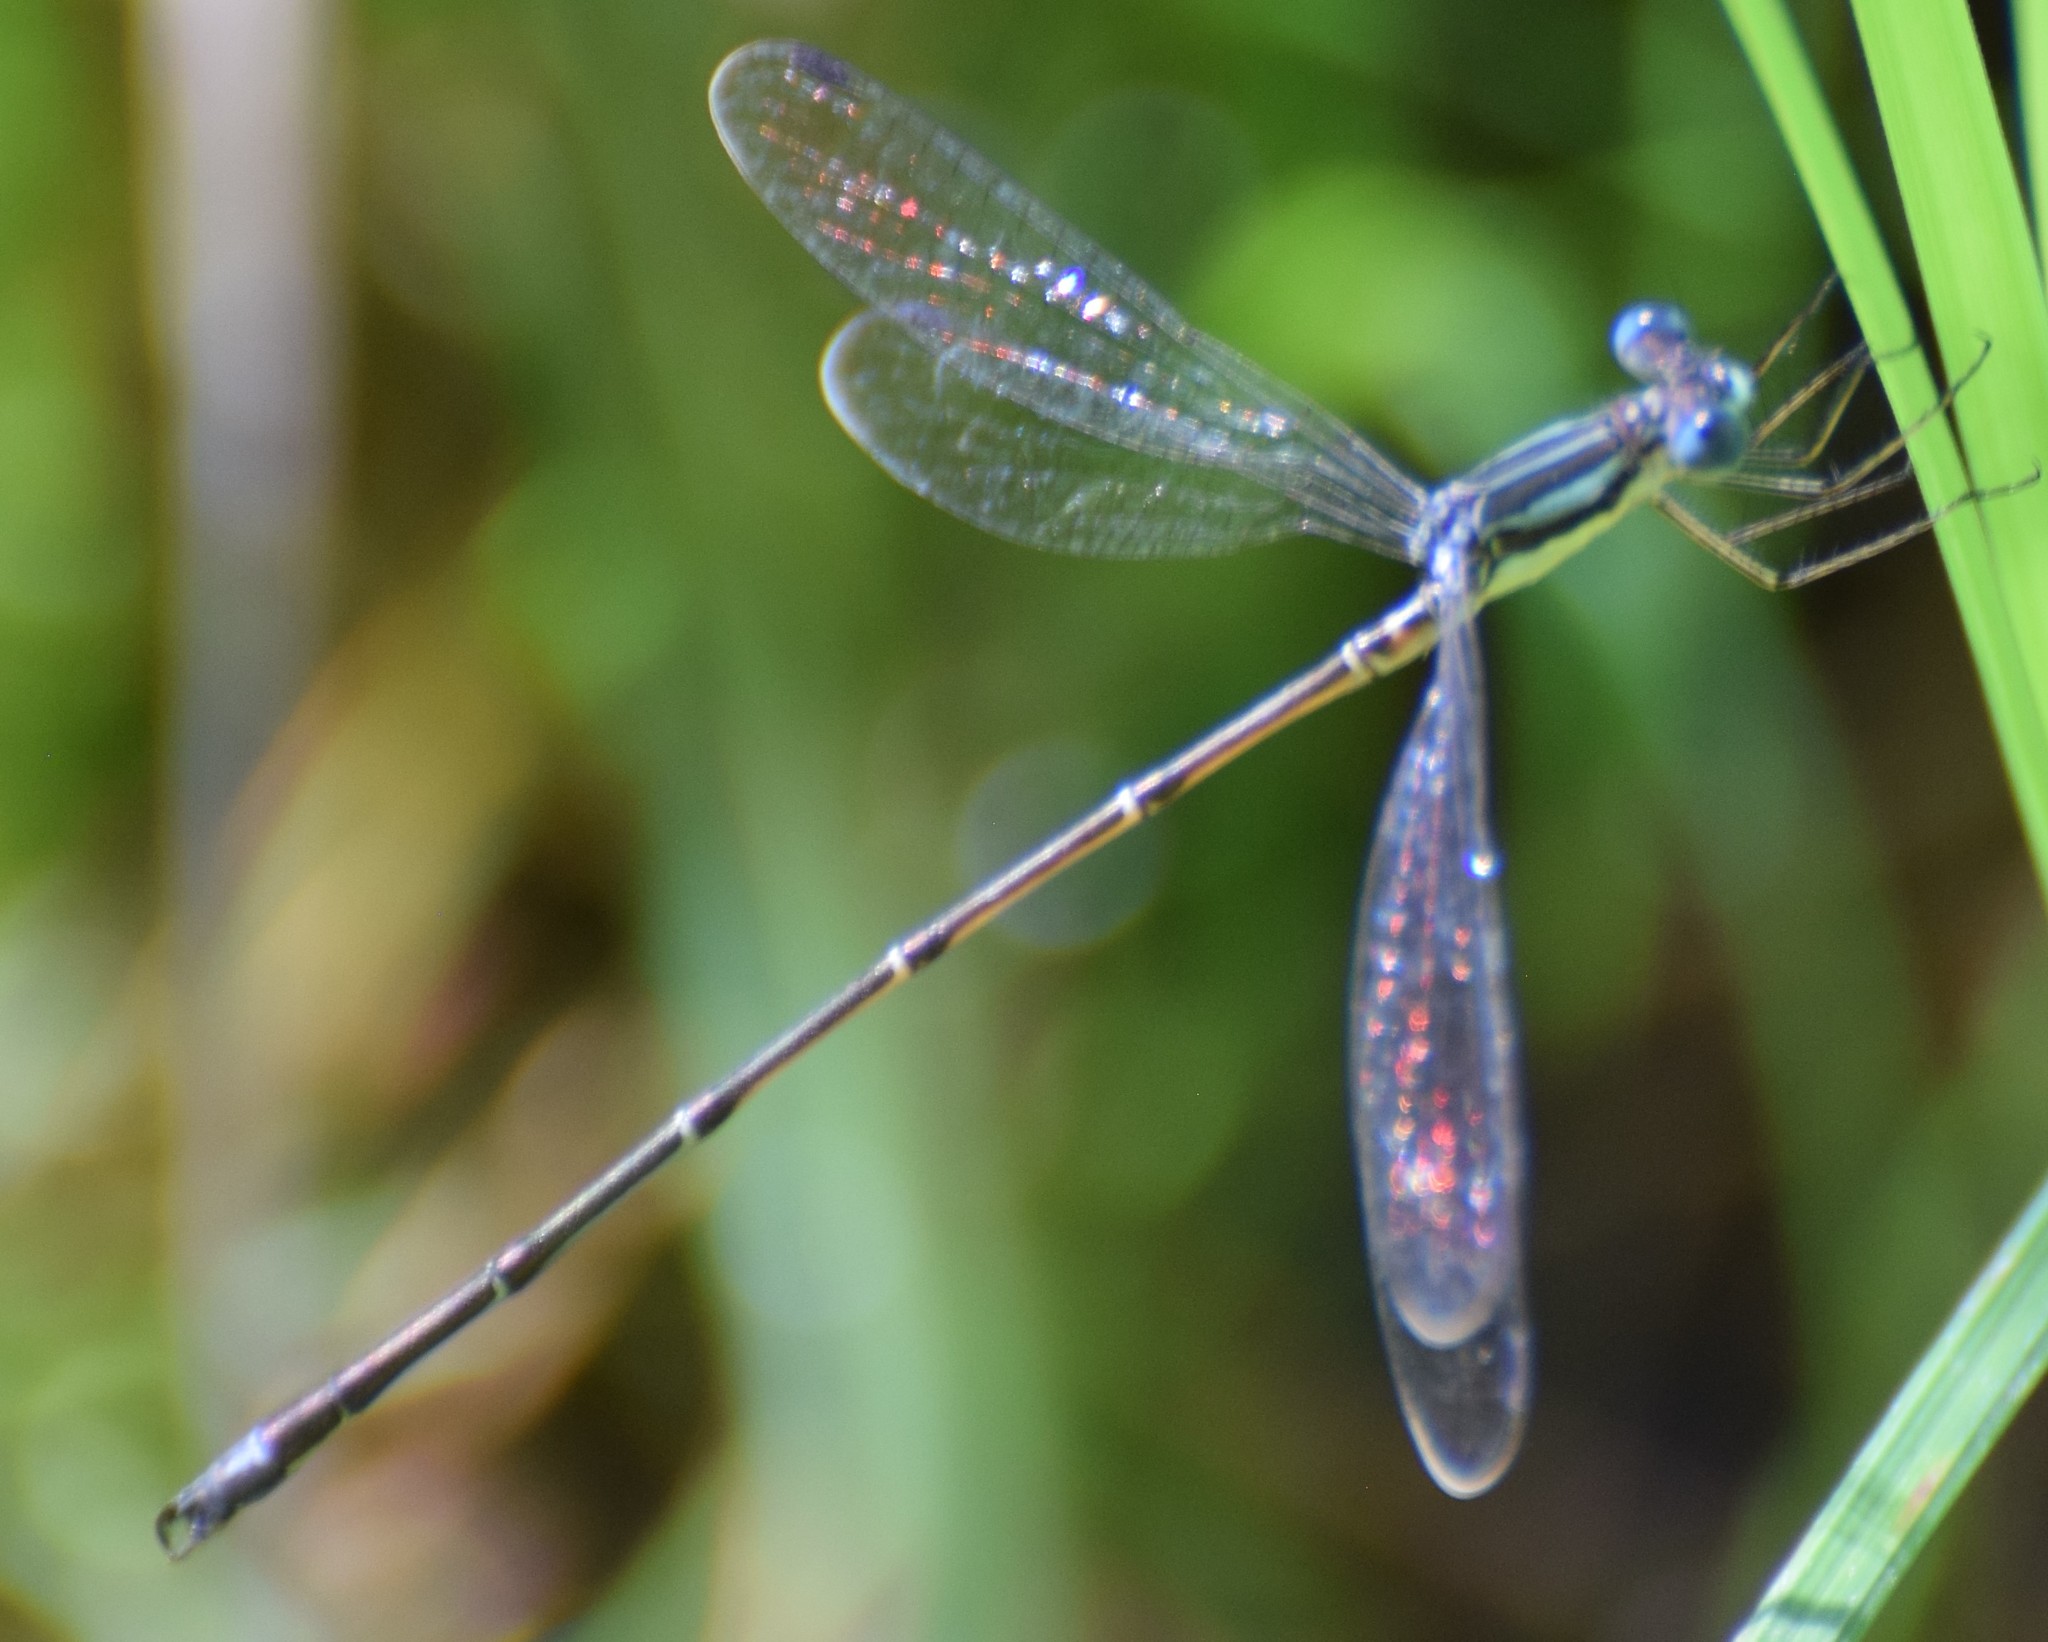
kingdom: Animalia
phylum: Arthropoda
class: Insecta
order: Odonata
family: Lestidae
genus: Lestes
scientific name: Lestes rectangularis
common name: Slender spreadwing
